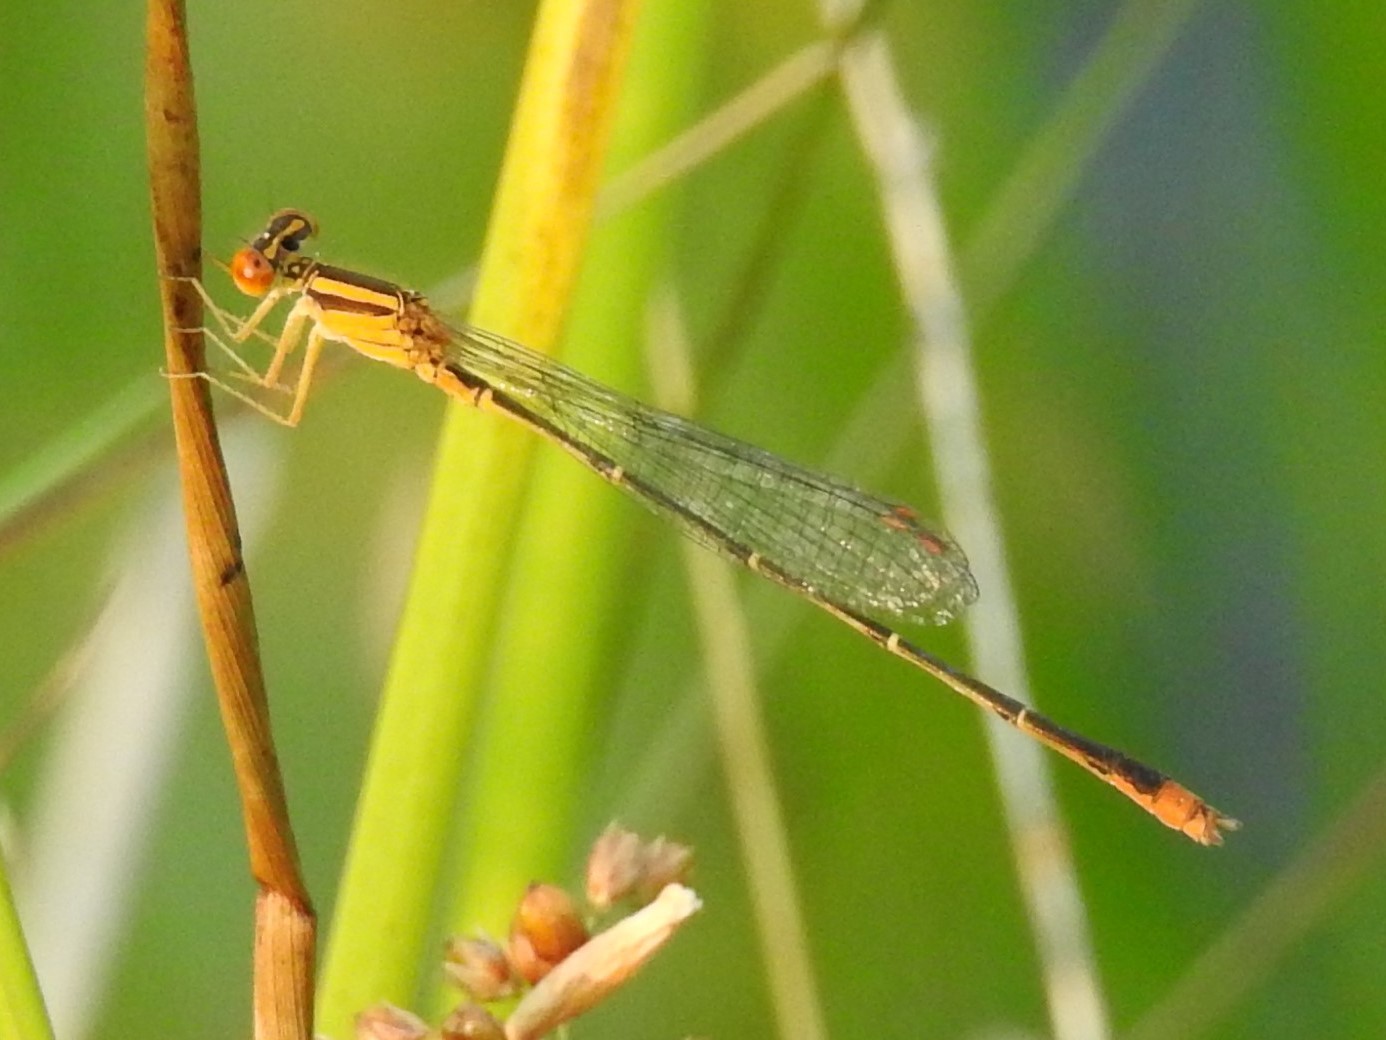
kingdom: Animalia
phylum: Arthropoda
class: Insecta
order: Odonata
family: Coenagrionidae
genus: Enallagma
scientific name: Enallagma signatum
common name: Orange bluet
